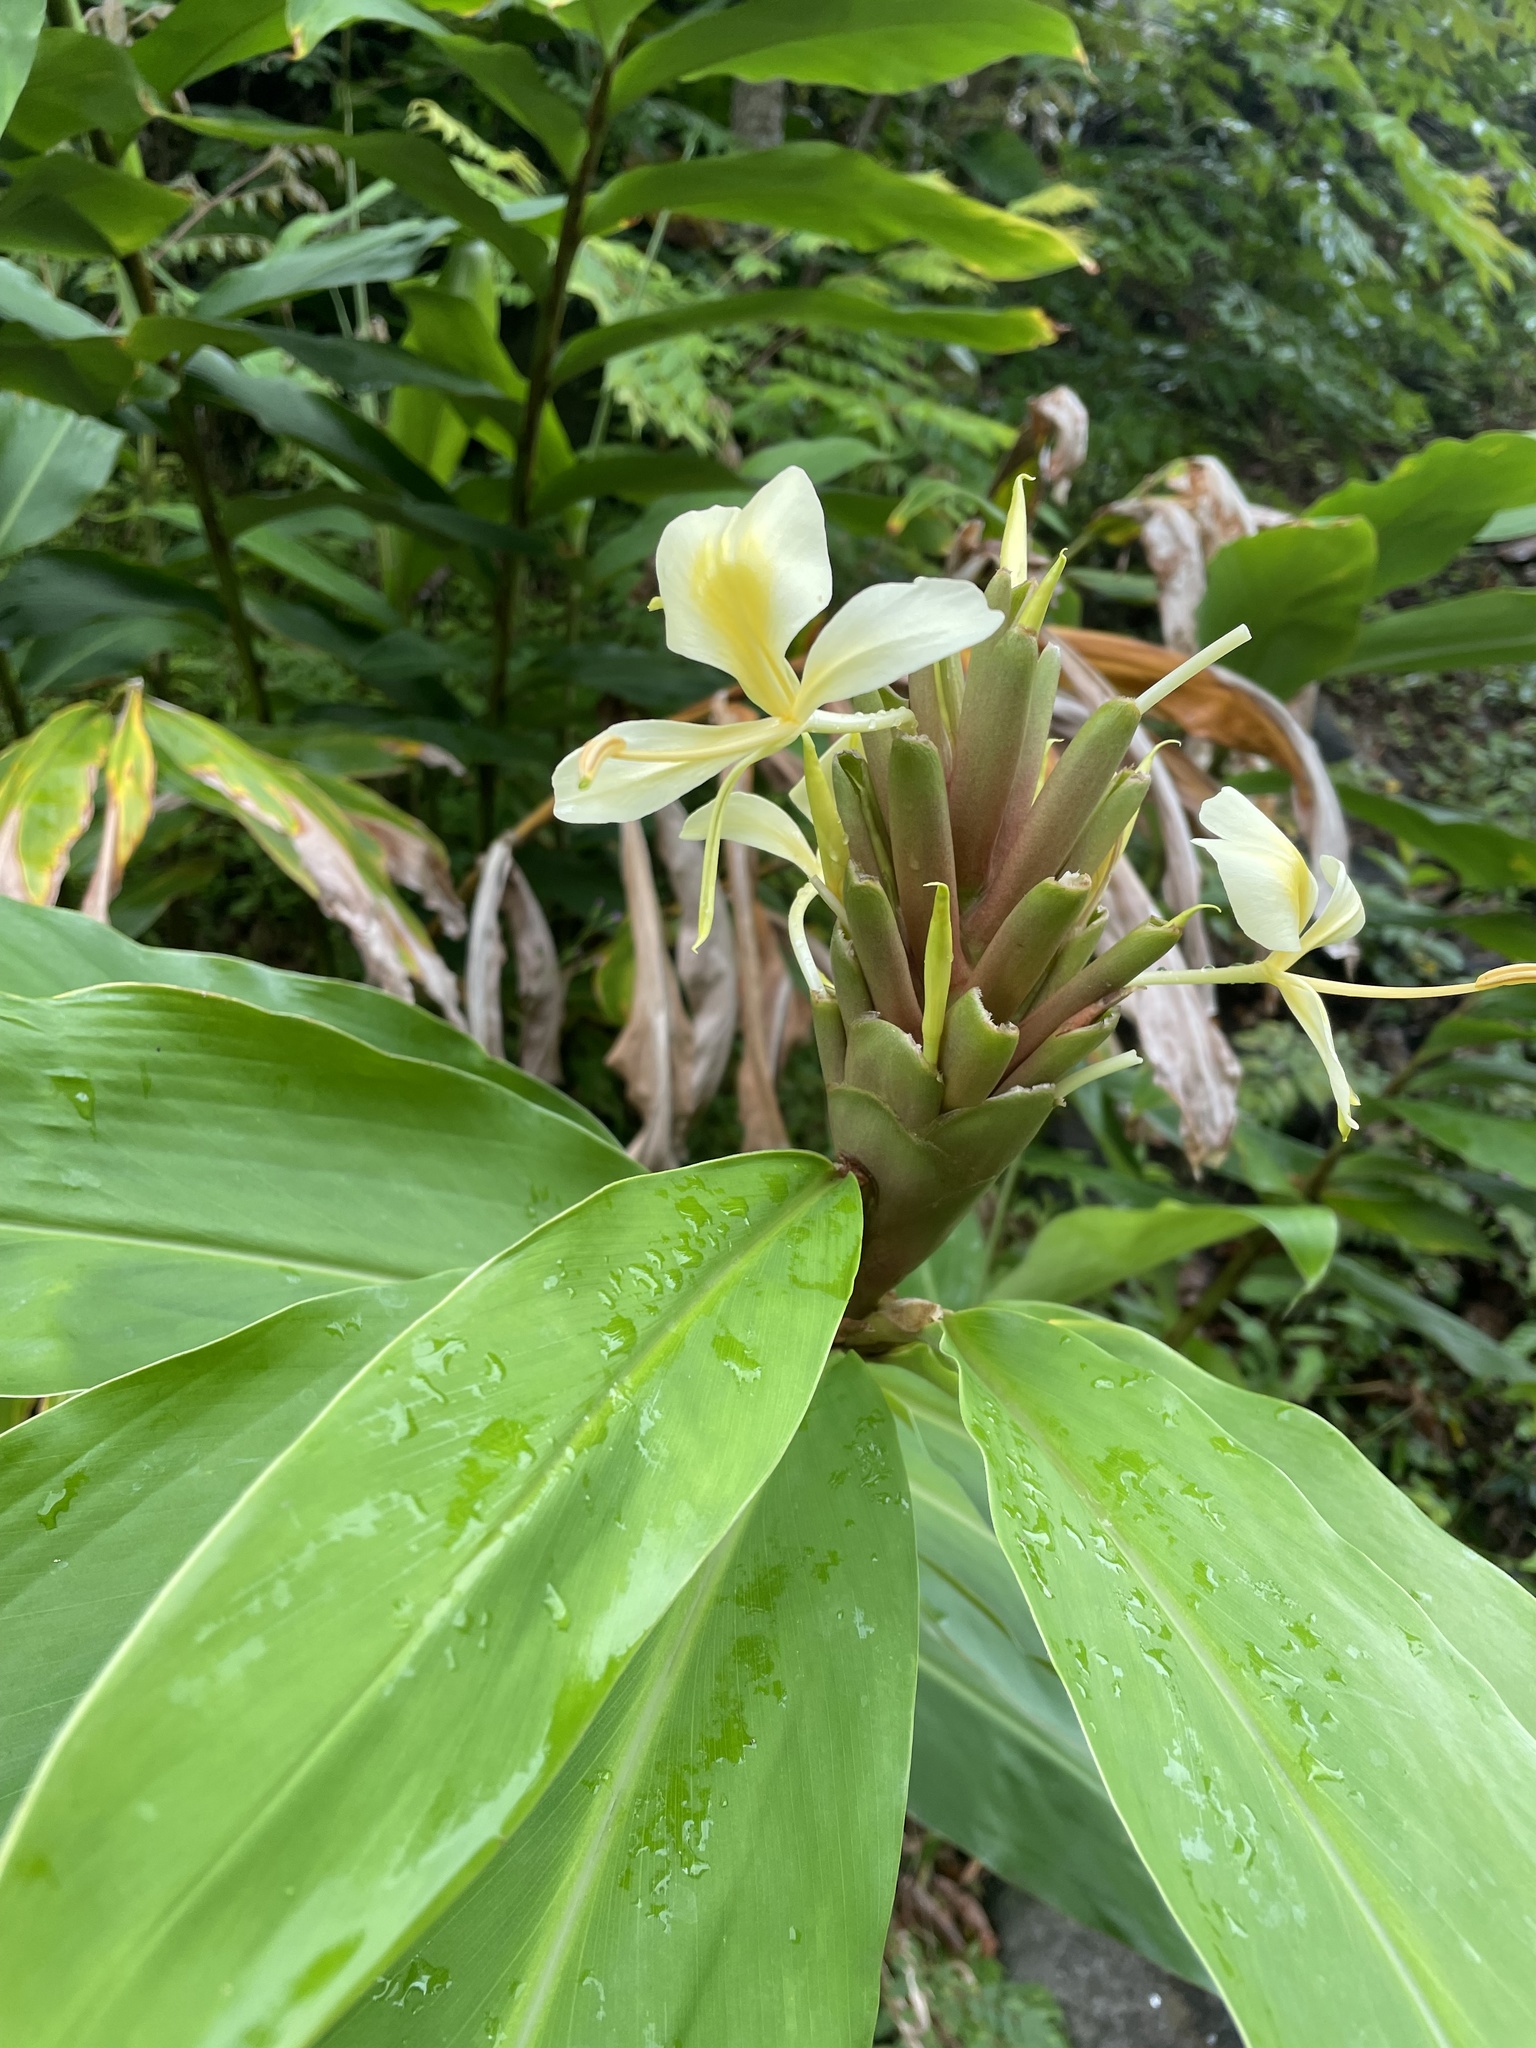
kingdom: Plantae
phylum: Tracheophyta
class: Liliopsida
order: Zingiberales
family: Zingiberaceae
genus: Hedychium
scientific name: Hedychium flavescens
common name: Yellow ginger
